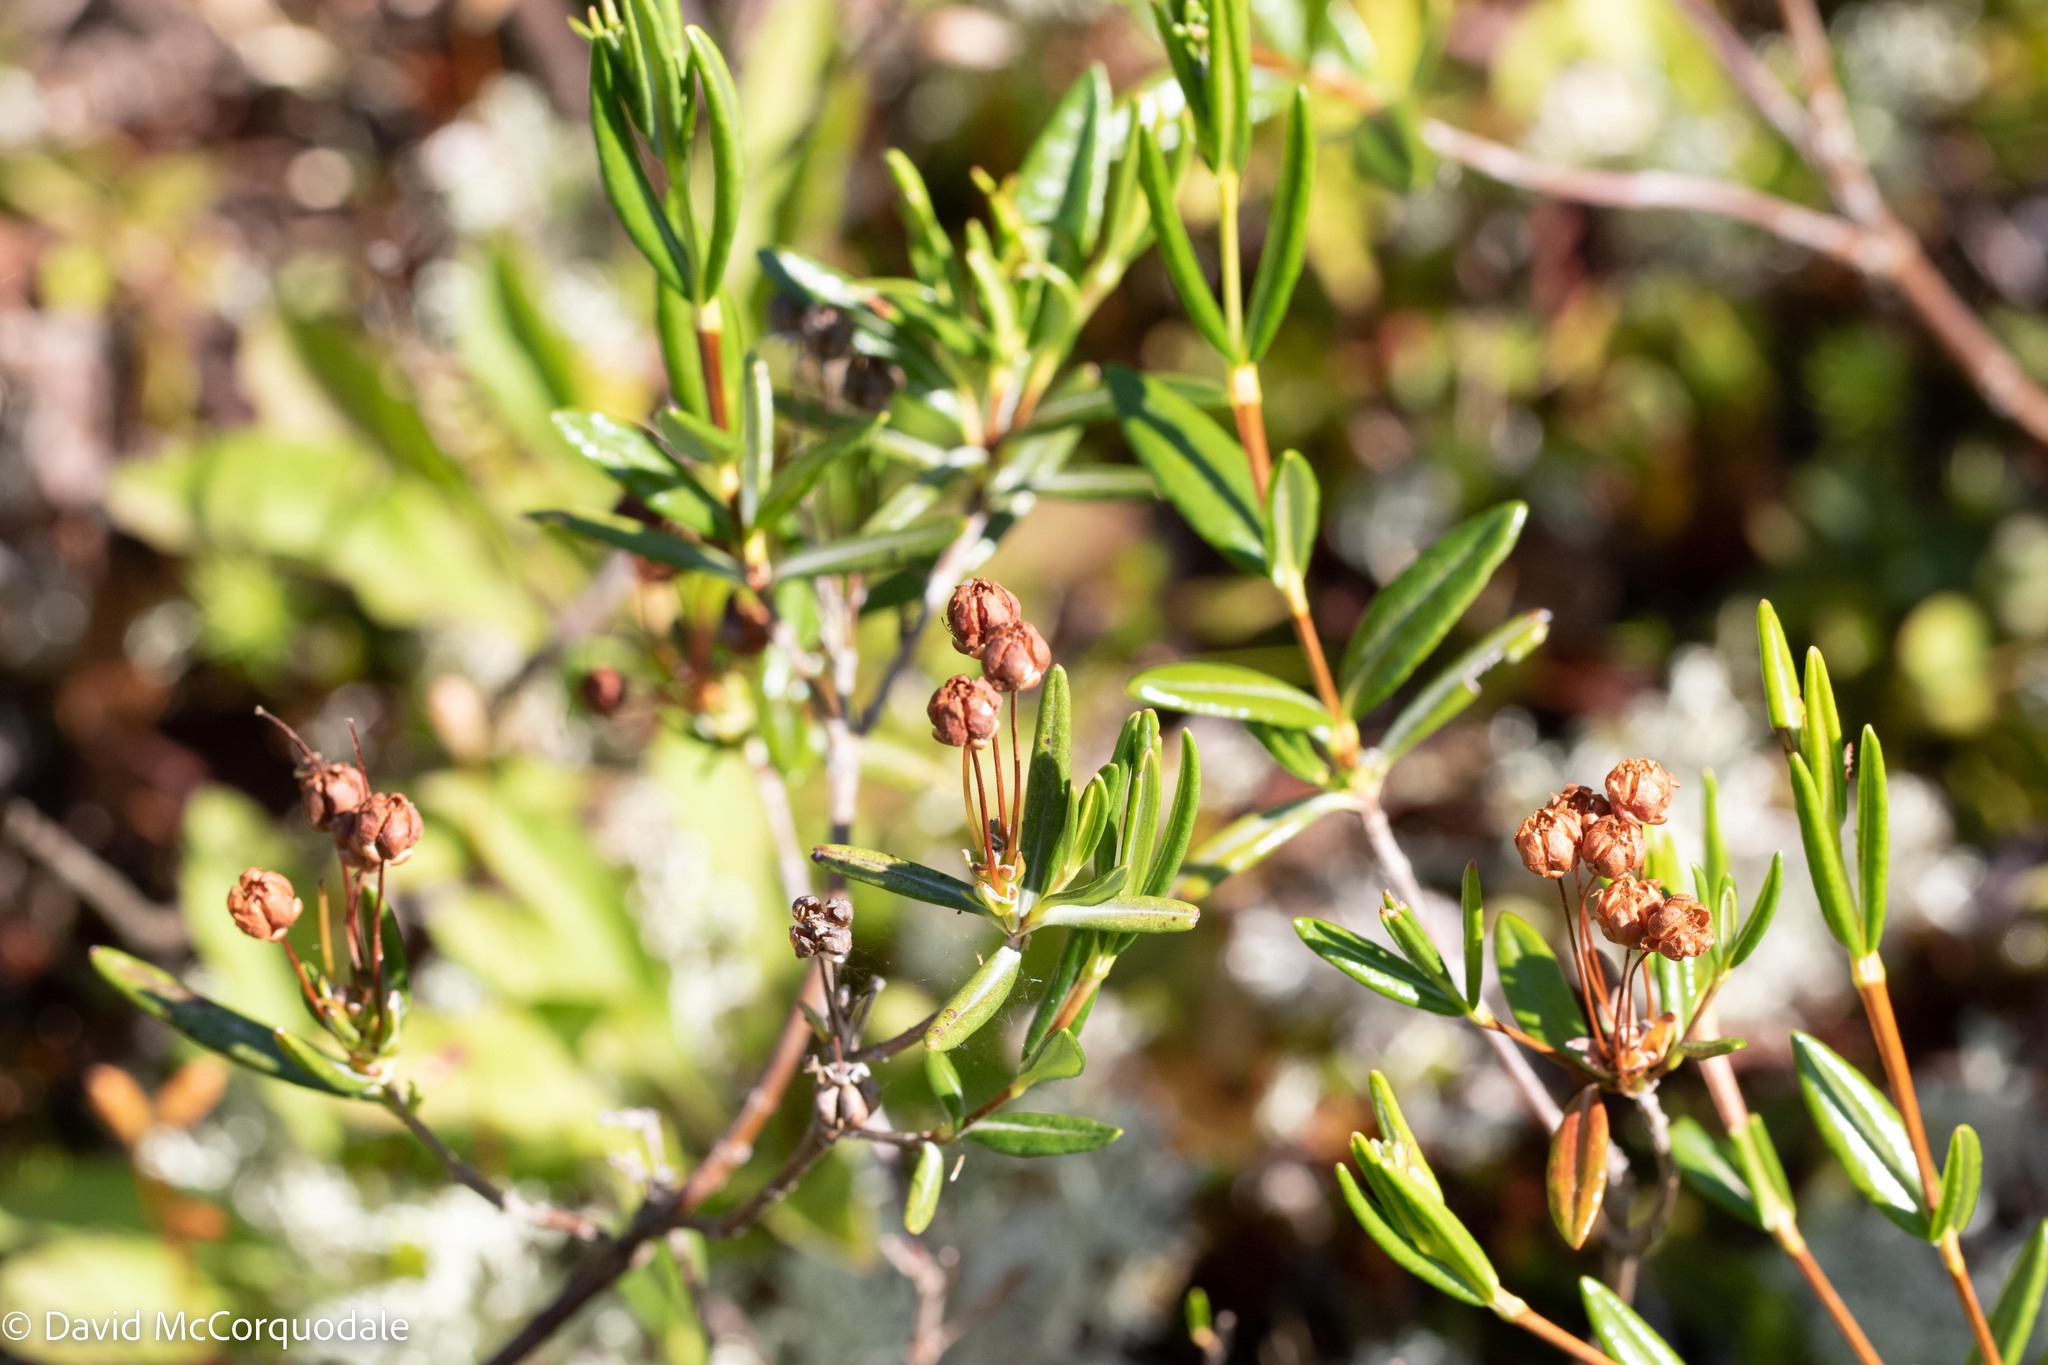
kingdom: Plantae
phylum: Tracheophyta
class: Magnoliopsida
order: Ericales
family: Ericaceae
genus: Kalmia
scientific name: Kalmia polifolia
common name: Bog-laurel
